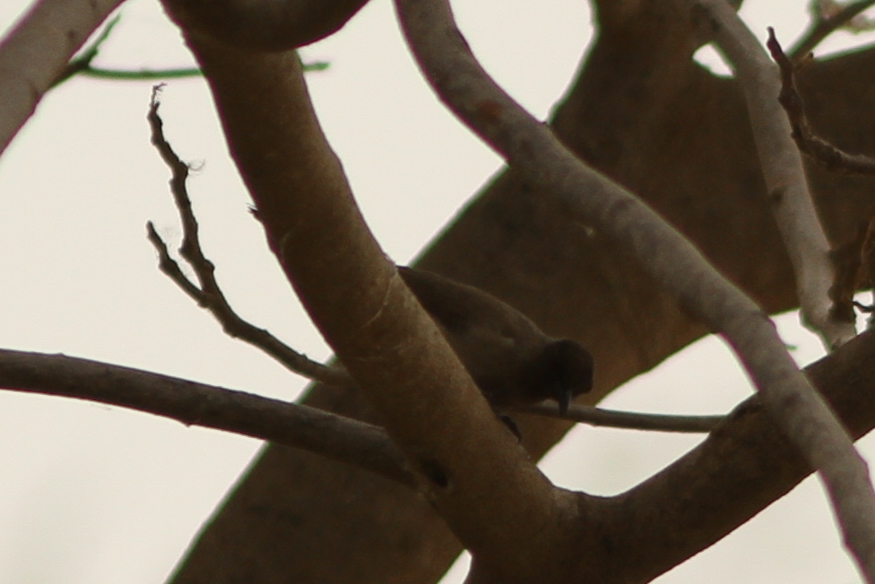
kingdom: Animalia
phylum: Chordata
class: Aves
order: Passeriformes
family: Pycnonotidae
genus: Pycnonotus
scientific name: Pycnonotus barbatus
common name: Common bulbul
